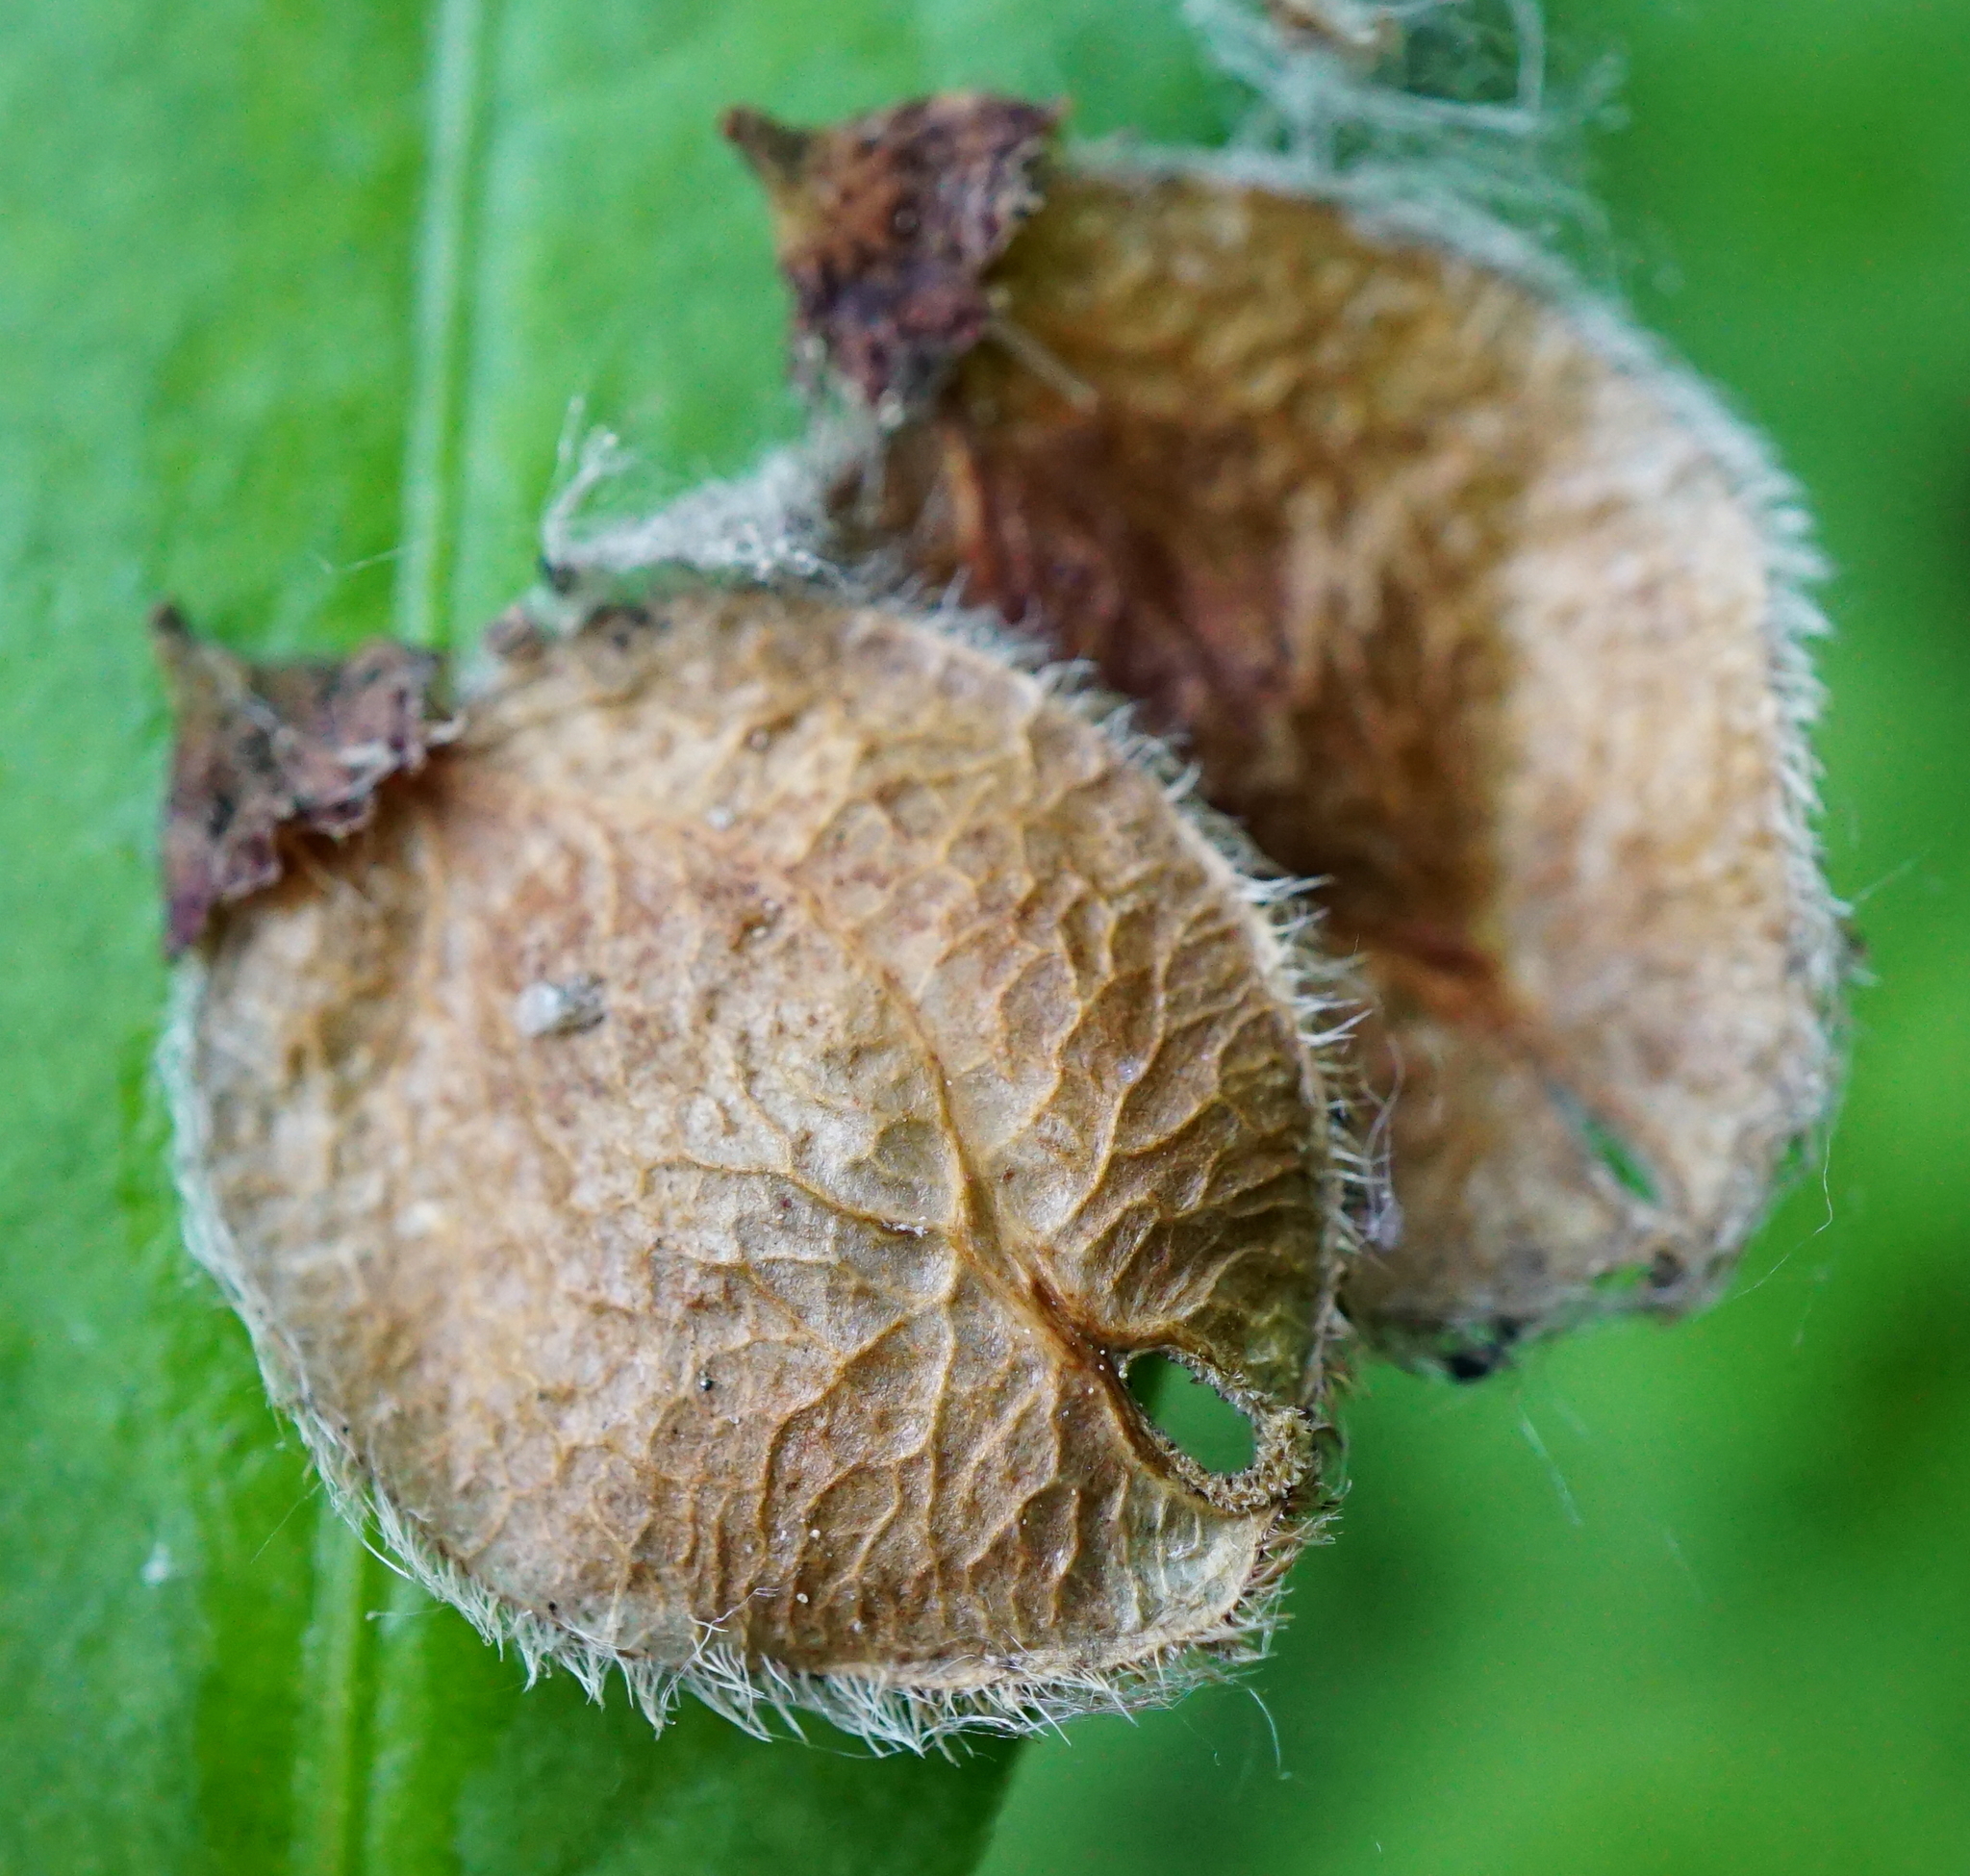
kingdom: Plantae
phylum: Tracheophyta
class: Magnoliopsida
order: Rosales
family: Ulmaceae
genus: Ulmus
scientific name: Ulmus laevis
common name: European white-elm
